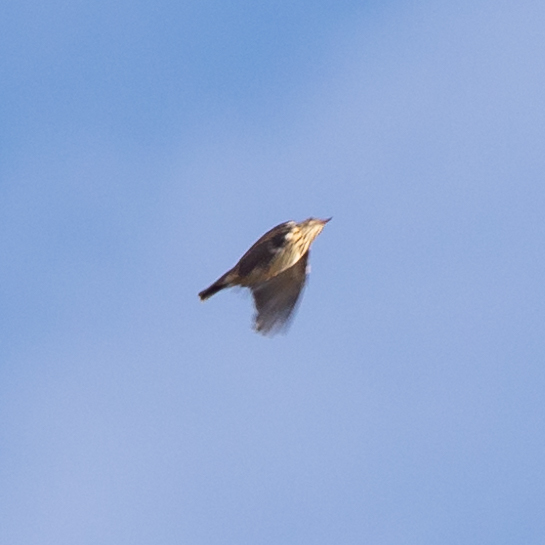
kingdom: Animalia
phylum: Chordata
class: Aves
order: Passeriformes
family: Alaudidae
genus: Lullula
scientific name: Lullula arborea
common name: Woodlark
